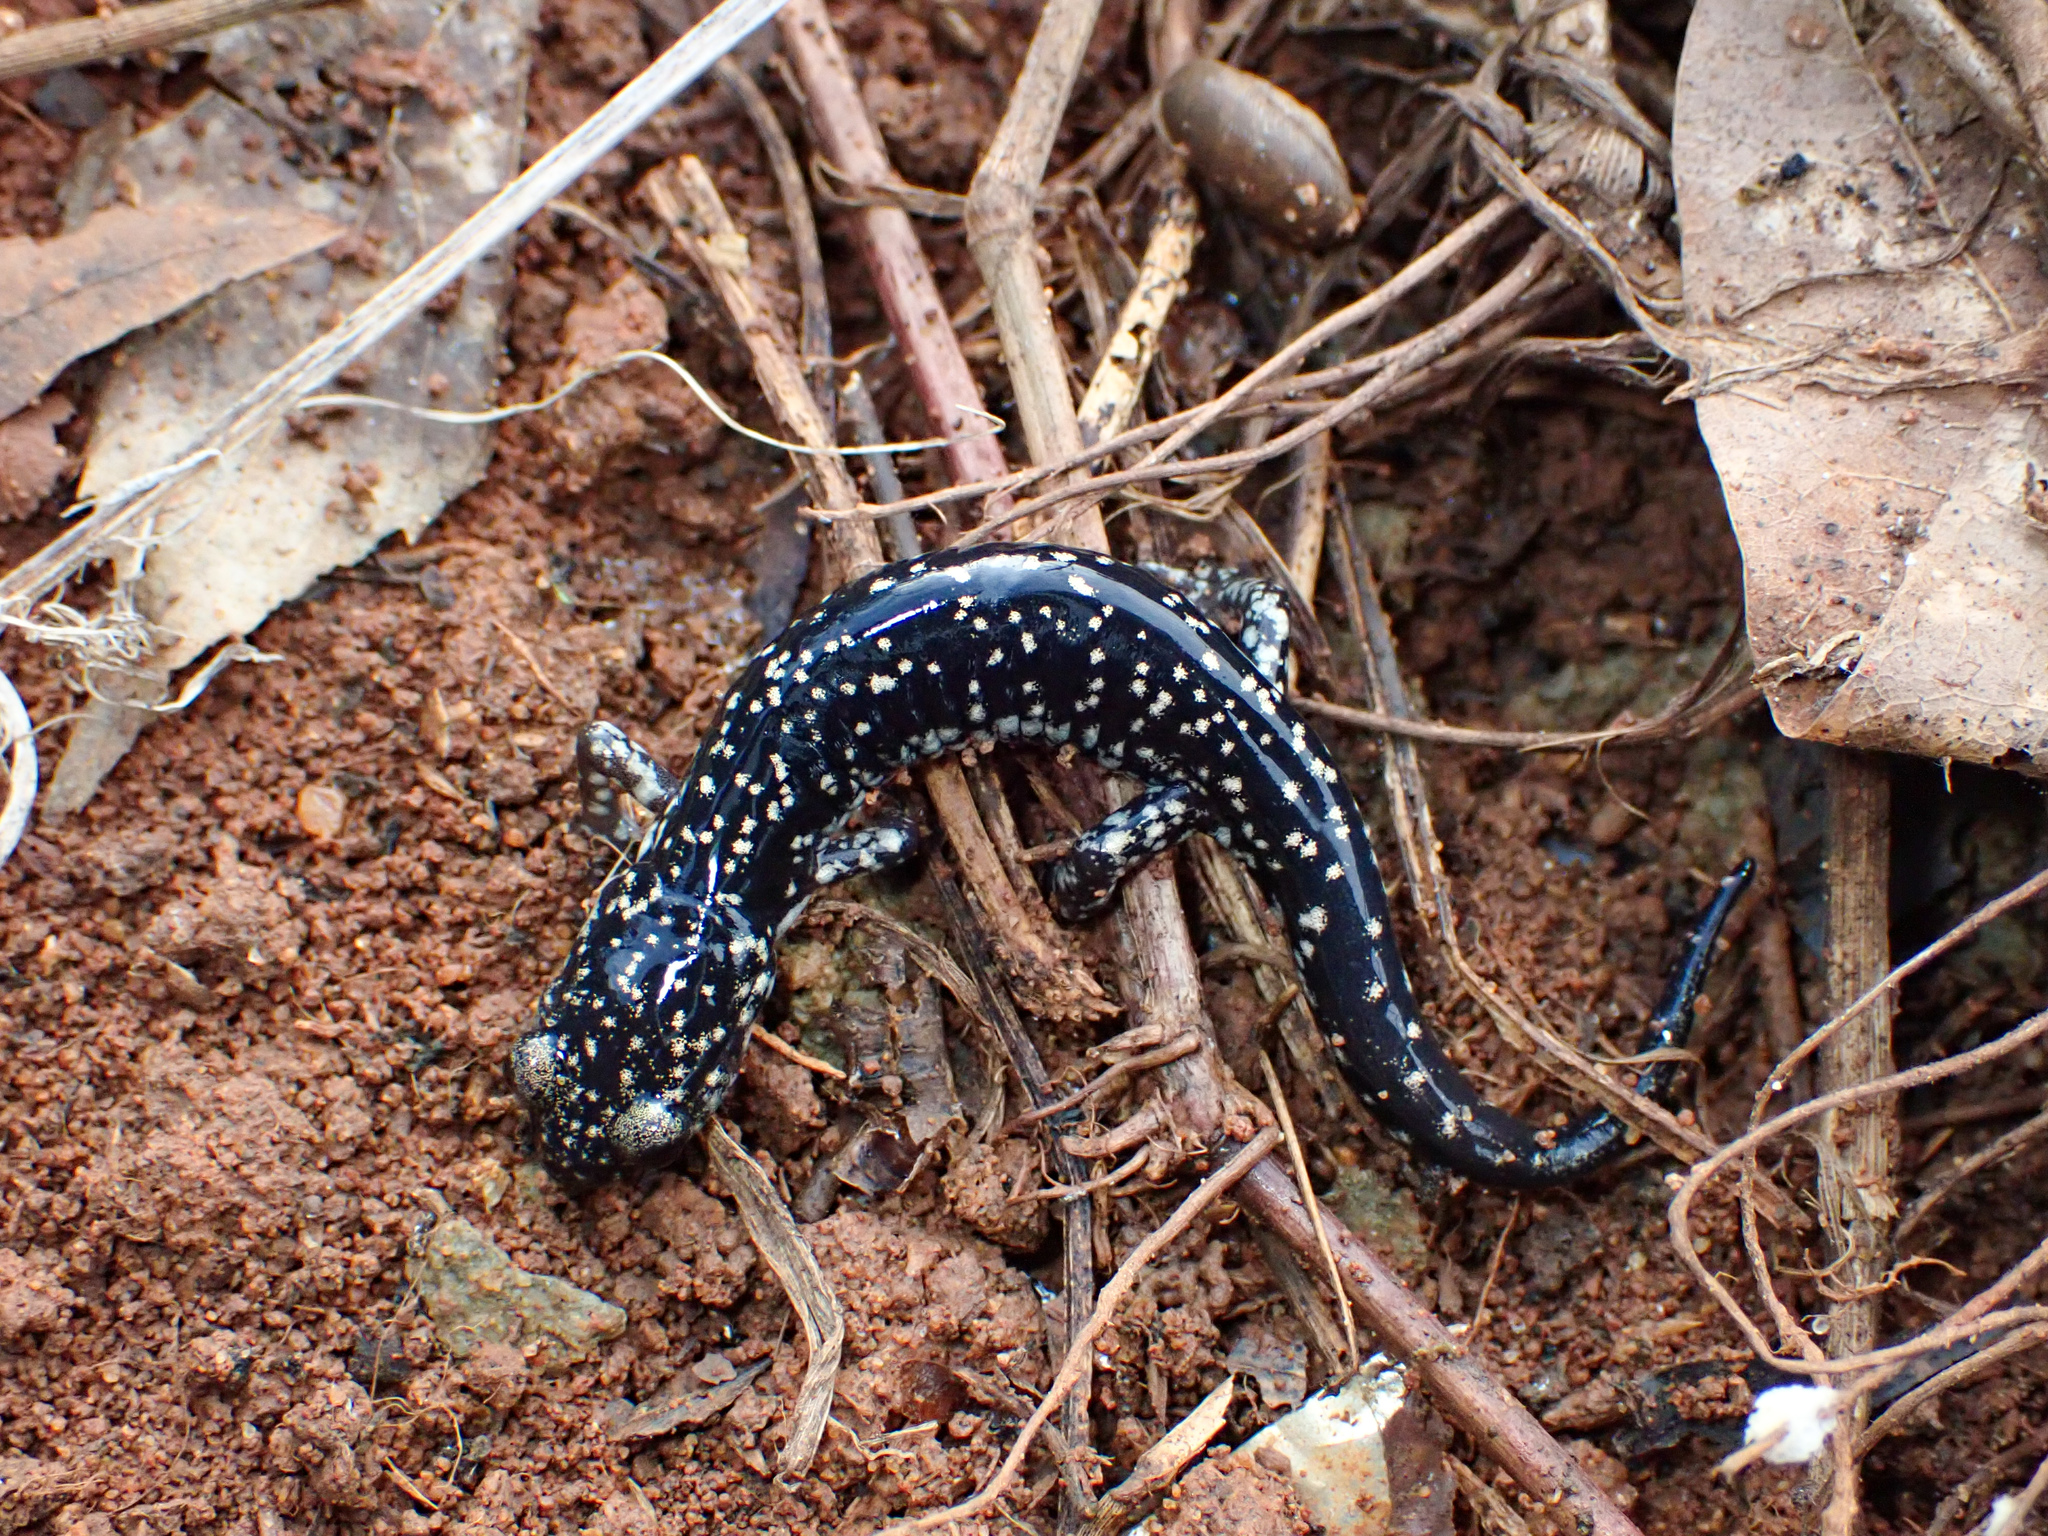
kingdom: Animalia
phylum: Chordata
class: Amphibia
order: Caudata
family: Plethodontidae
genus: Plethodon
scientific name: Plethodon glutinosus
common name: Northern slimy salamander
